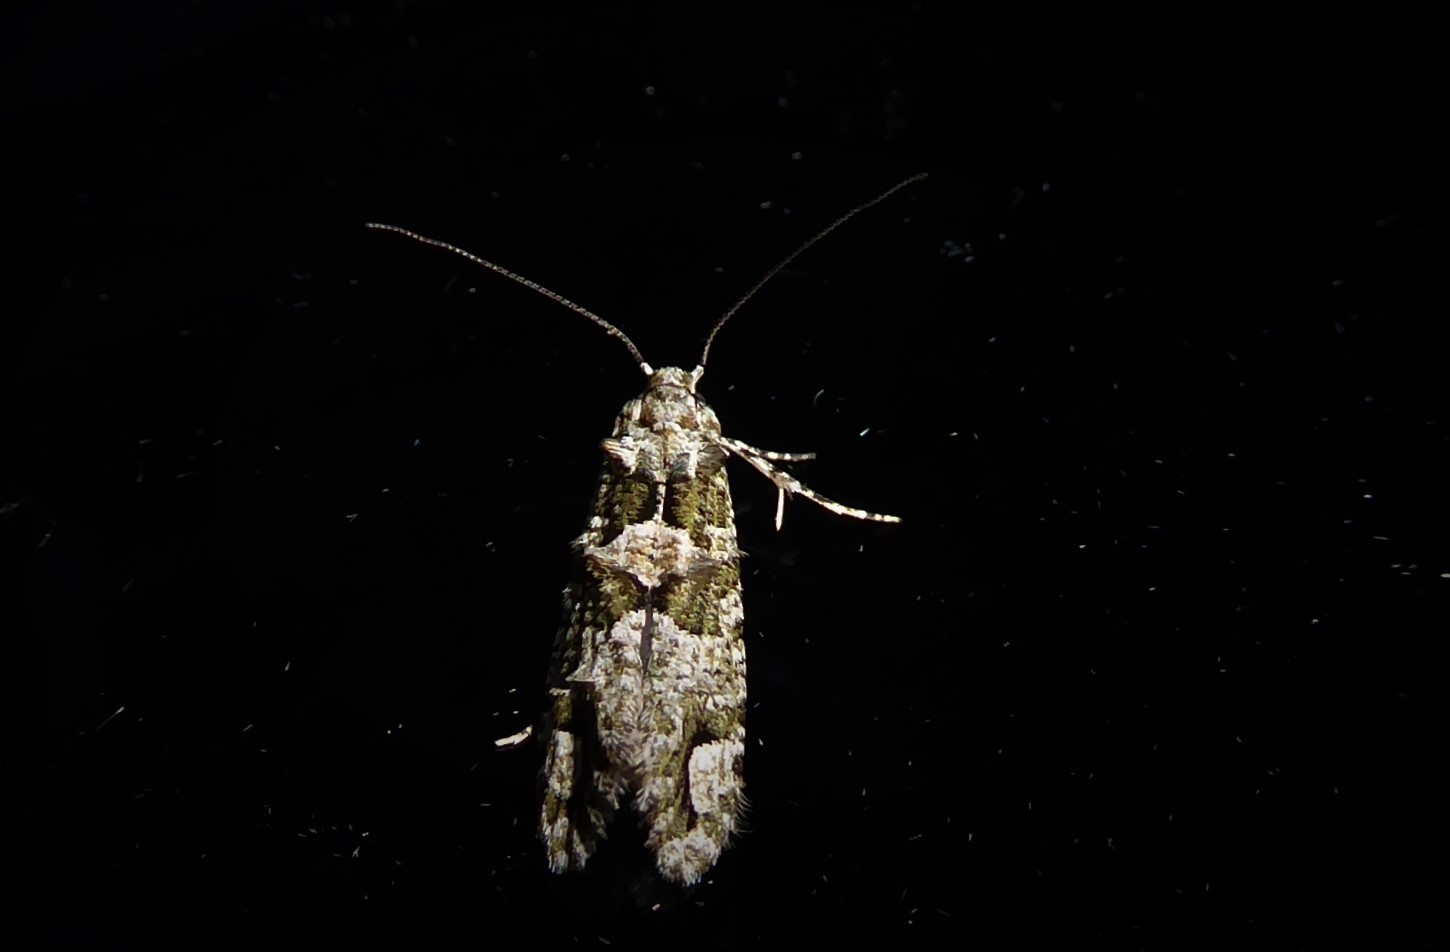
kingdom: Animalia
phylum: Arthropoda
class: Insecta
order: Lepidoptera
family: Tineidae
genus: Lysiphragma
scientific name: Lysiphragma howesii
